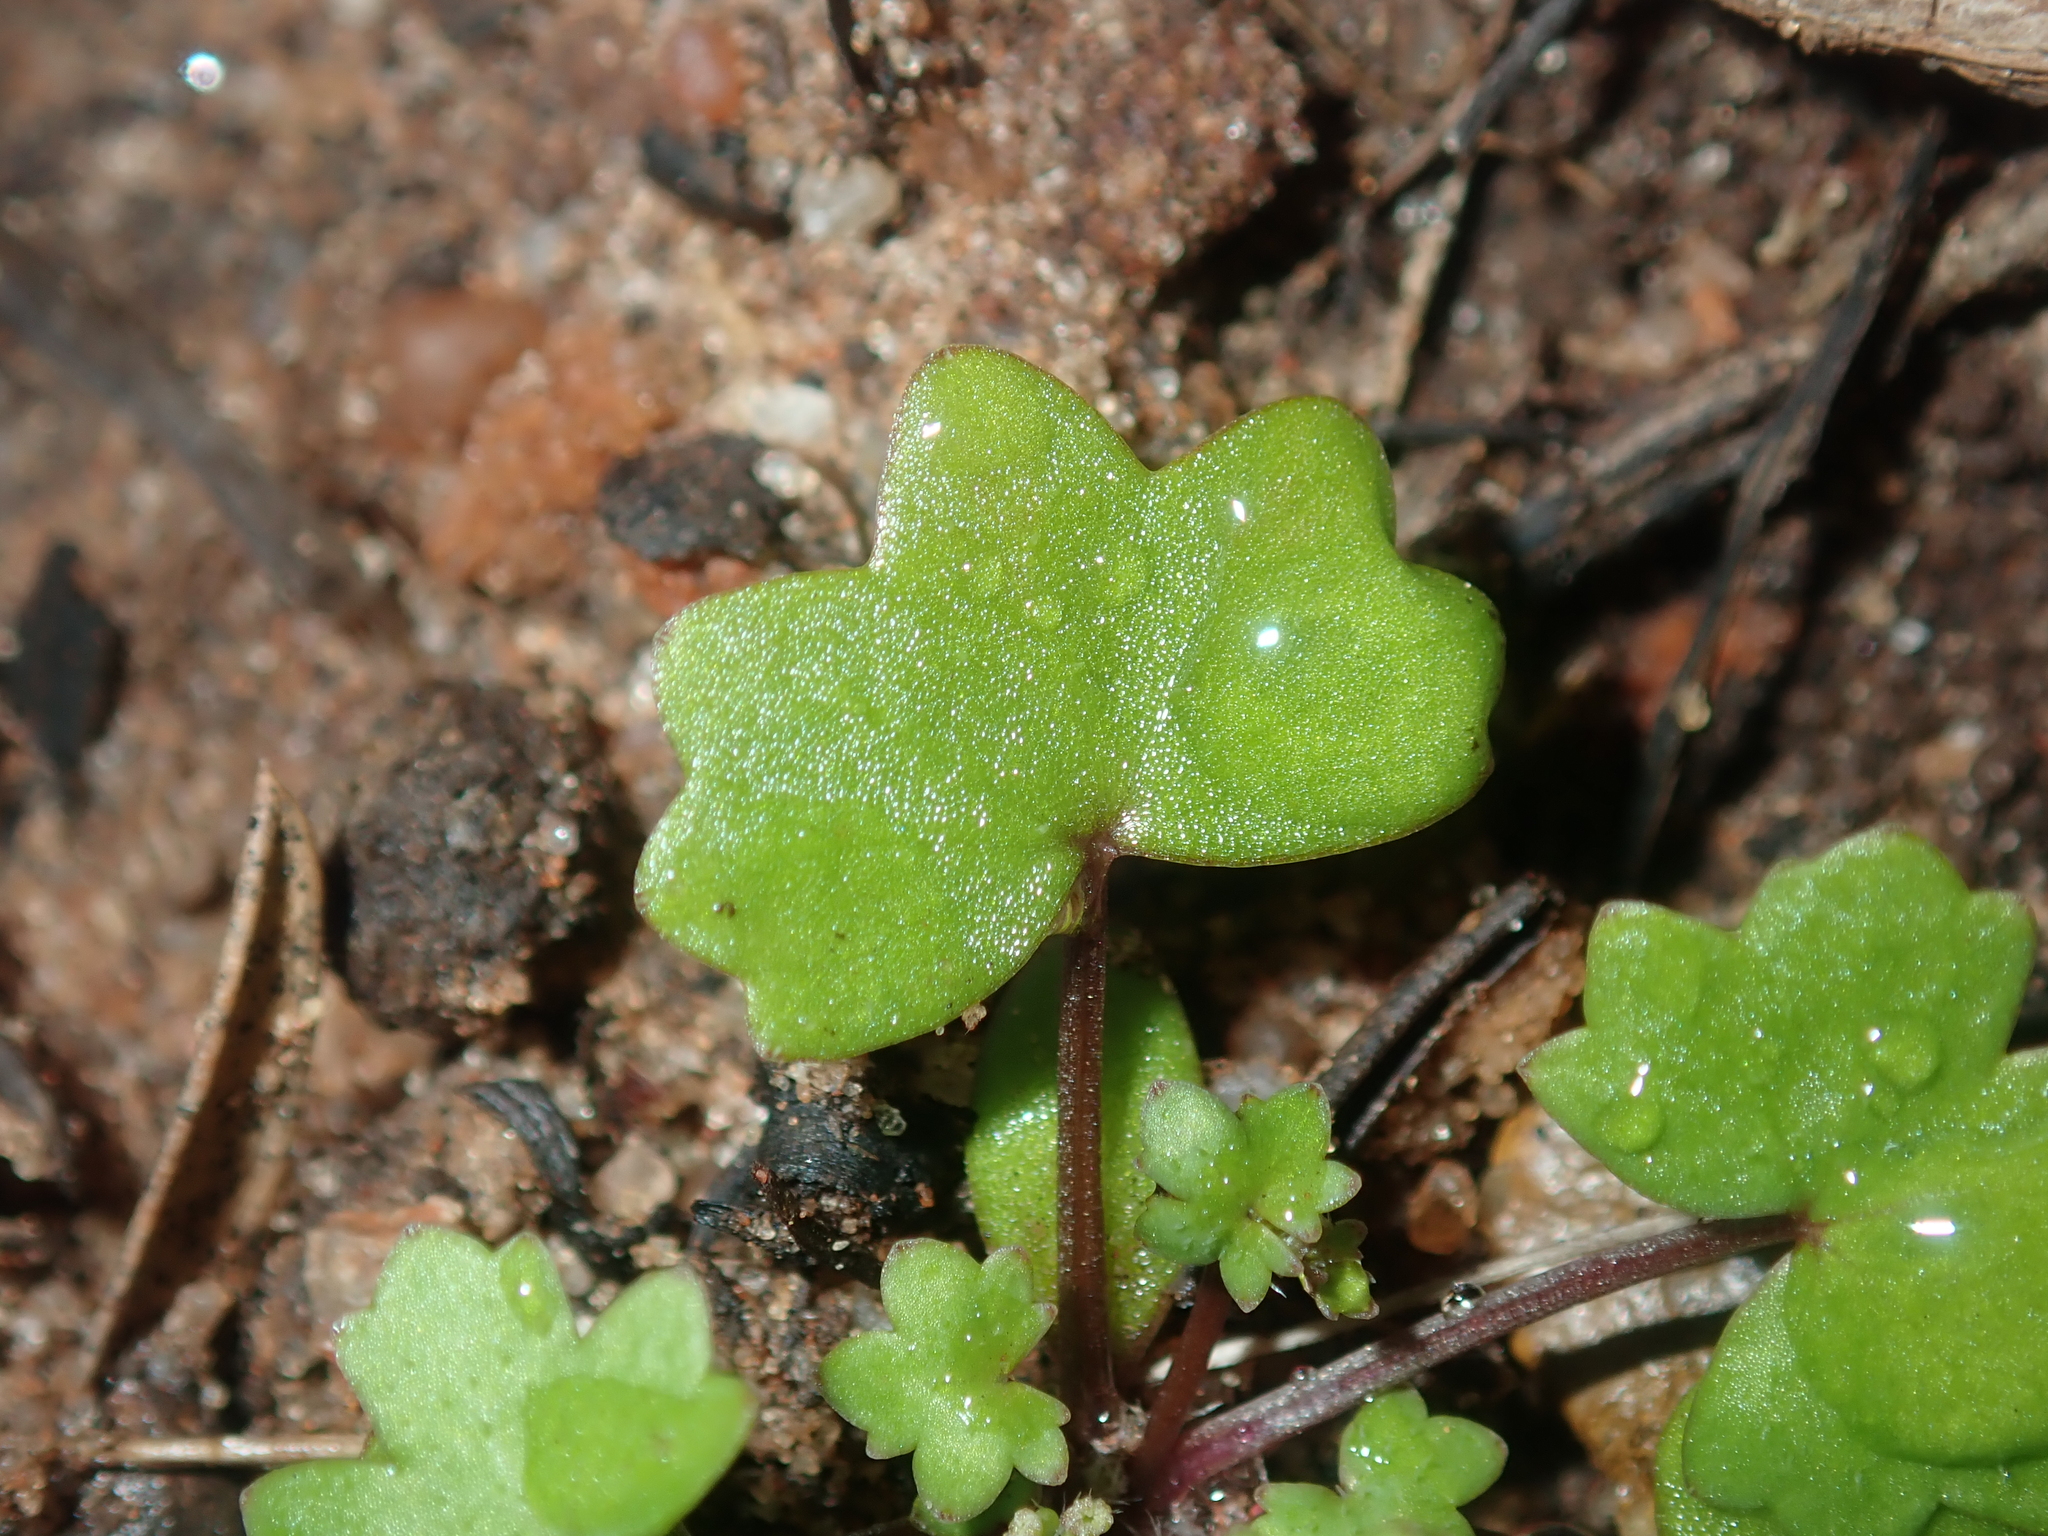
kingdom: Plantae
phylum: Tracheophyta
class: Magnoliopsida
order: Apiales
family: Araliaceae
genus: Hydrocotyle
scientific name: Hydrocotyle hispidula
